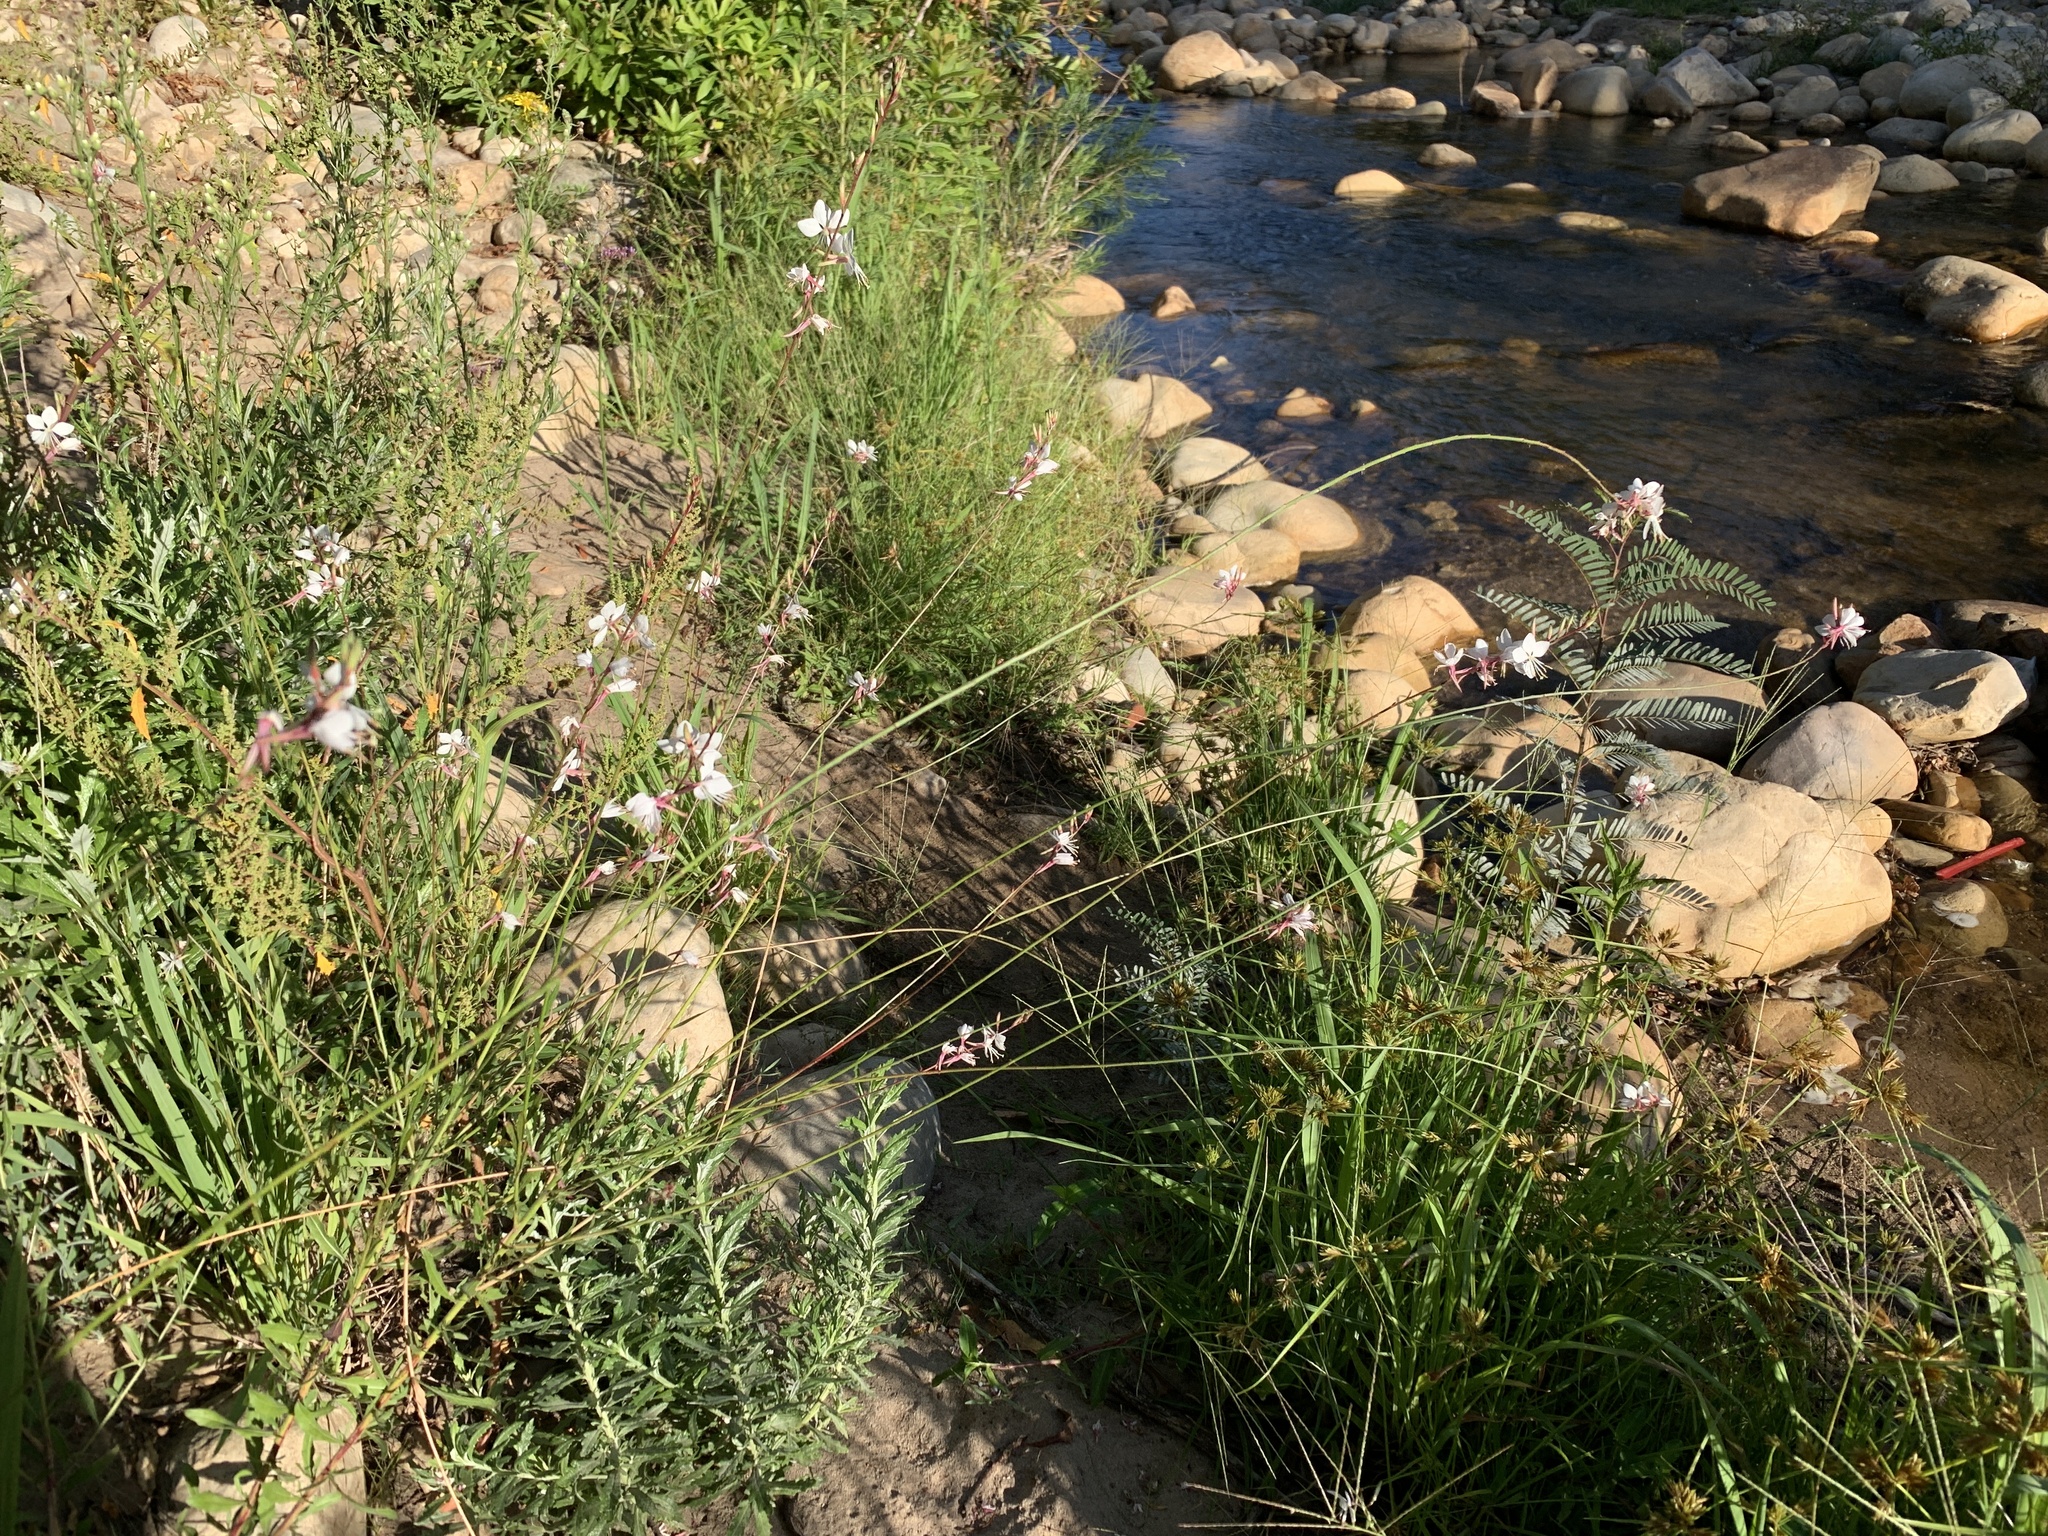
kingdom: Plantae
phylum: Tracheophyta
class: Magnoliopsida
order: Myrtales
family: Onagraceae
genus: Oenothera
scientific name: Oenothera lindheimeri
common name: Lindheimer's beeblossom
